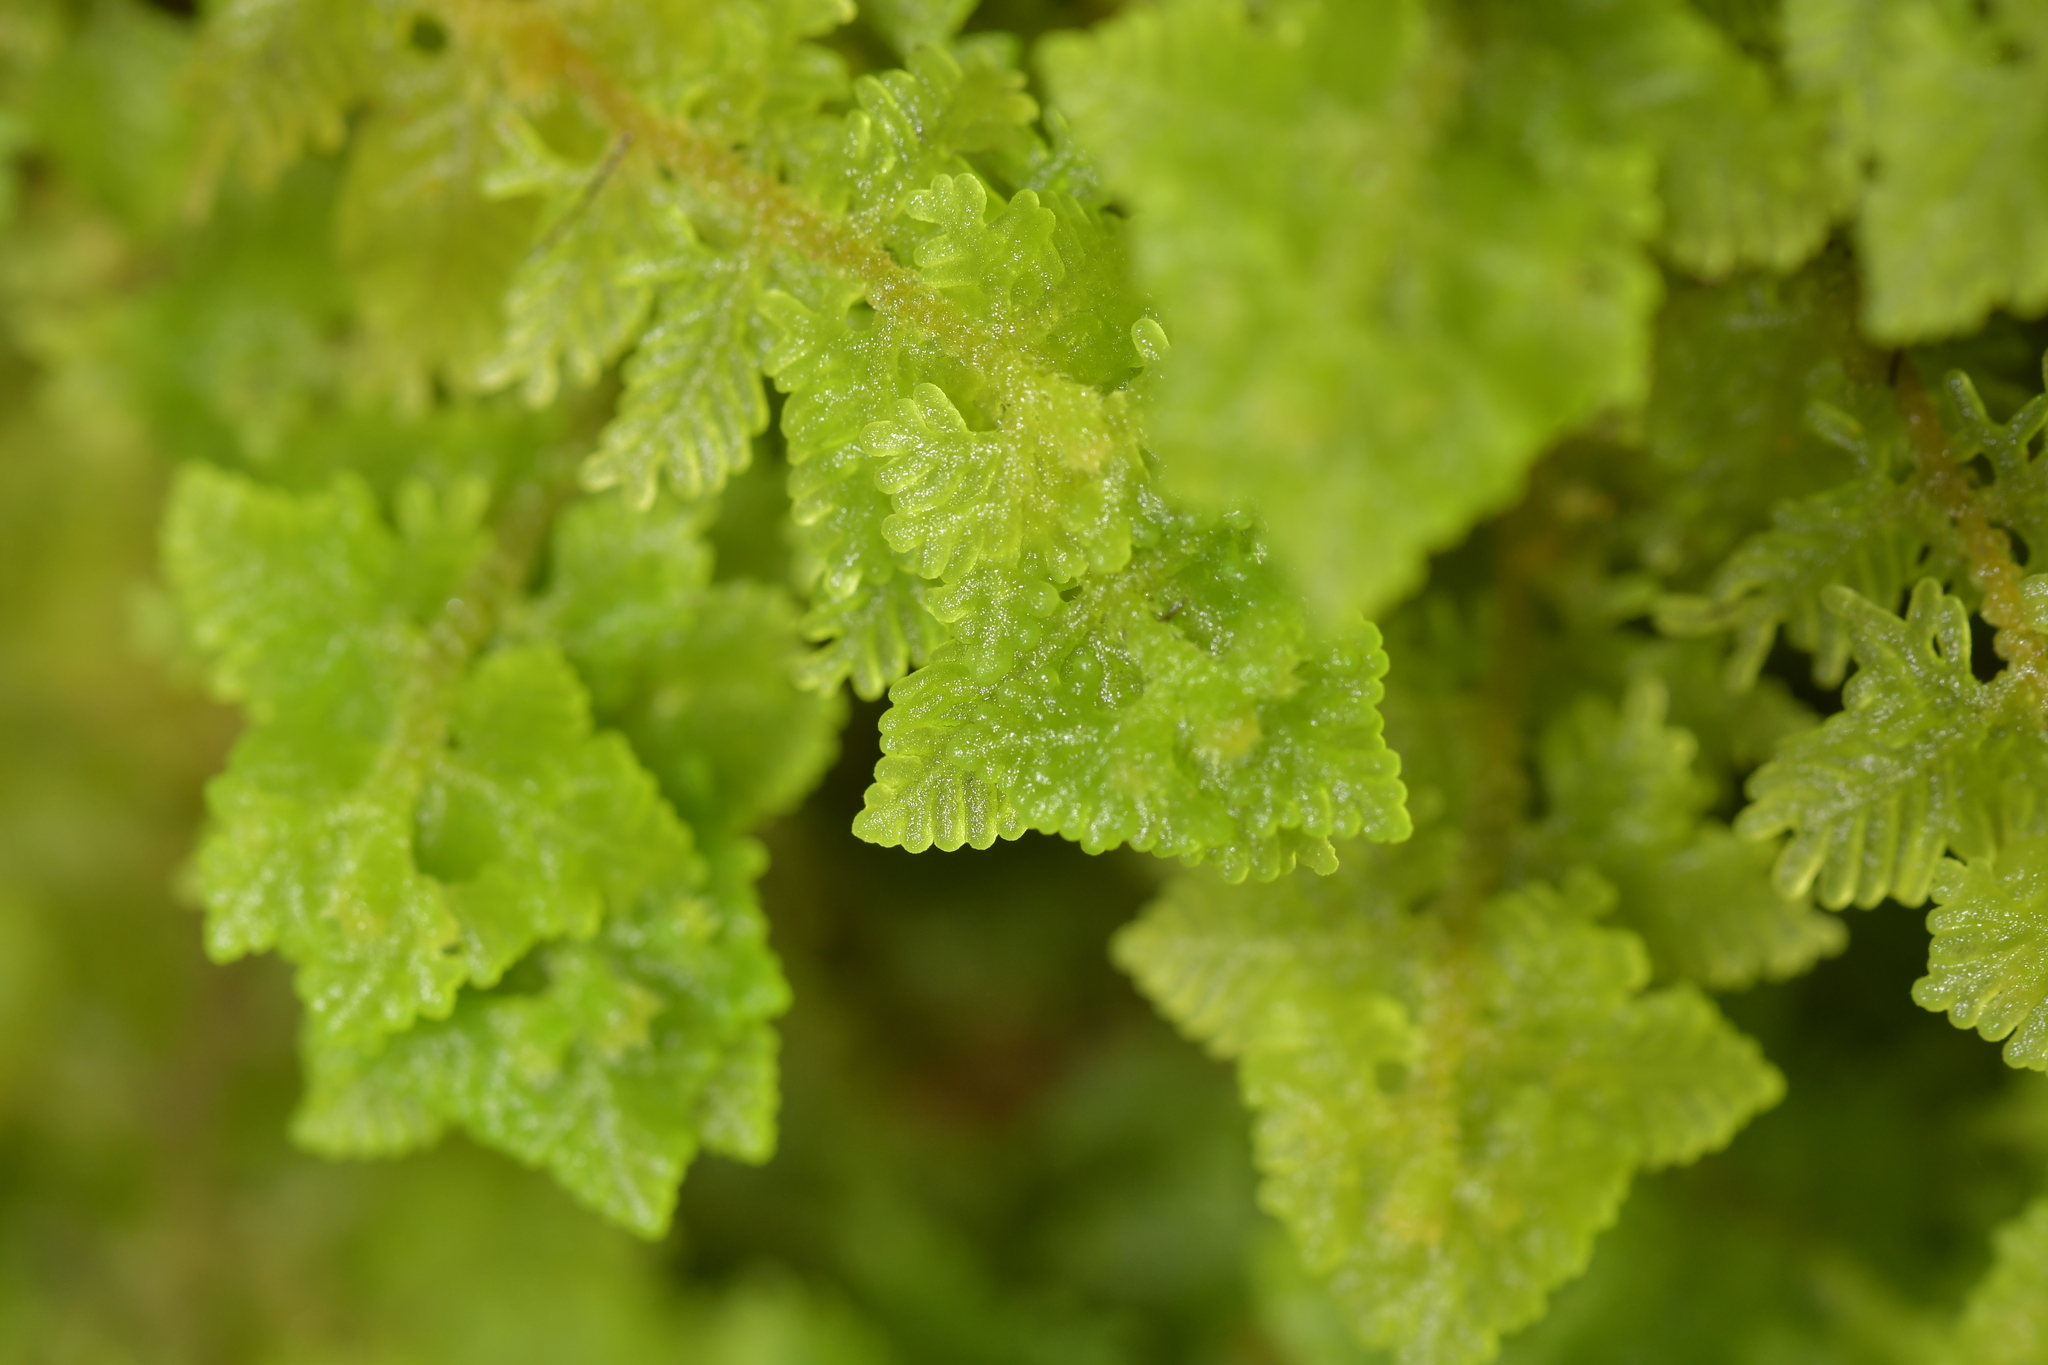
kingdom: Plantae
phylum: Marchantiophyta
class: Jungermanniopsida
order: Jungermanniales
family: Trichocoleaceae
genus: Trichocolea
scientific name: Trichocolea mollissima
